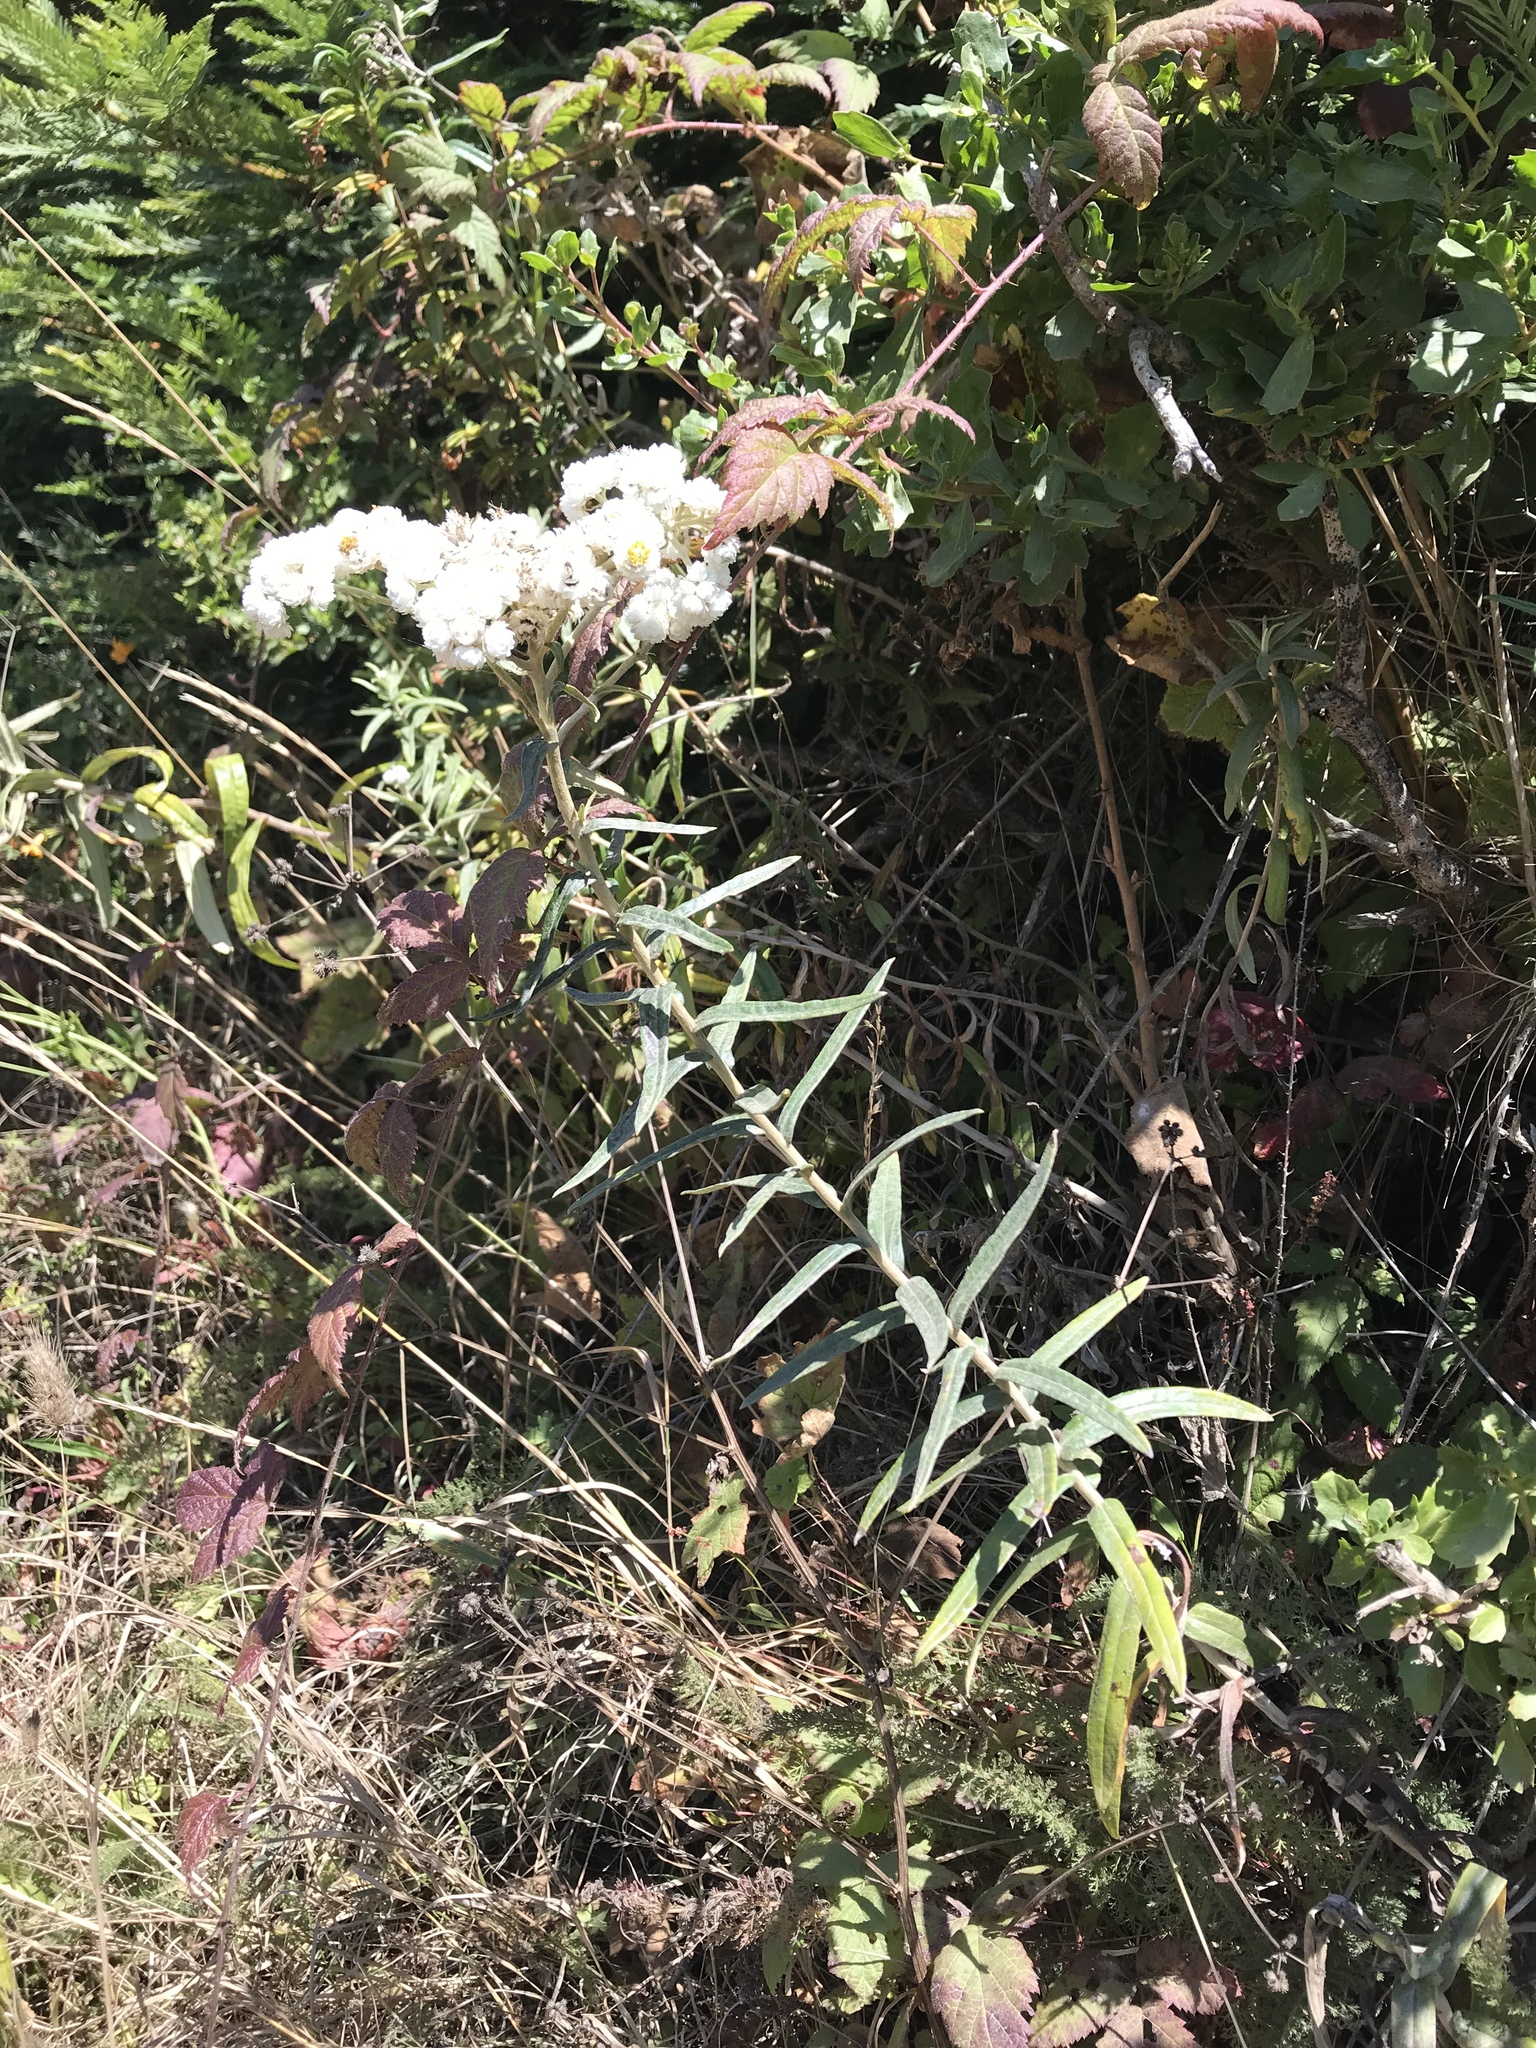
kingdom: Plantae
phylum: Tracheophyta
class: Magnoliopsida
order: Asterales
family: Asteraceae
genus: Anaphalis
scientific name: Anaphalis margaritacea
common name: Pearly everlasting
